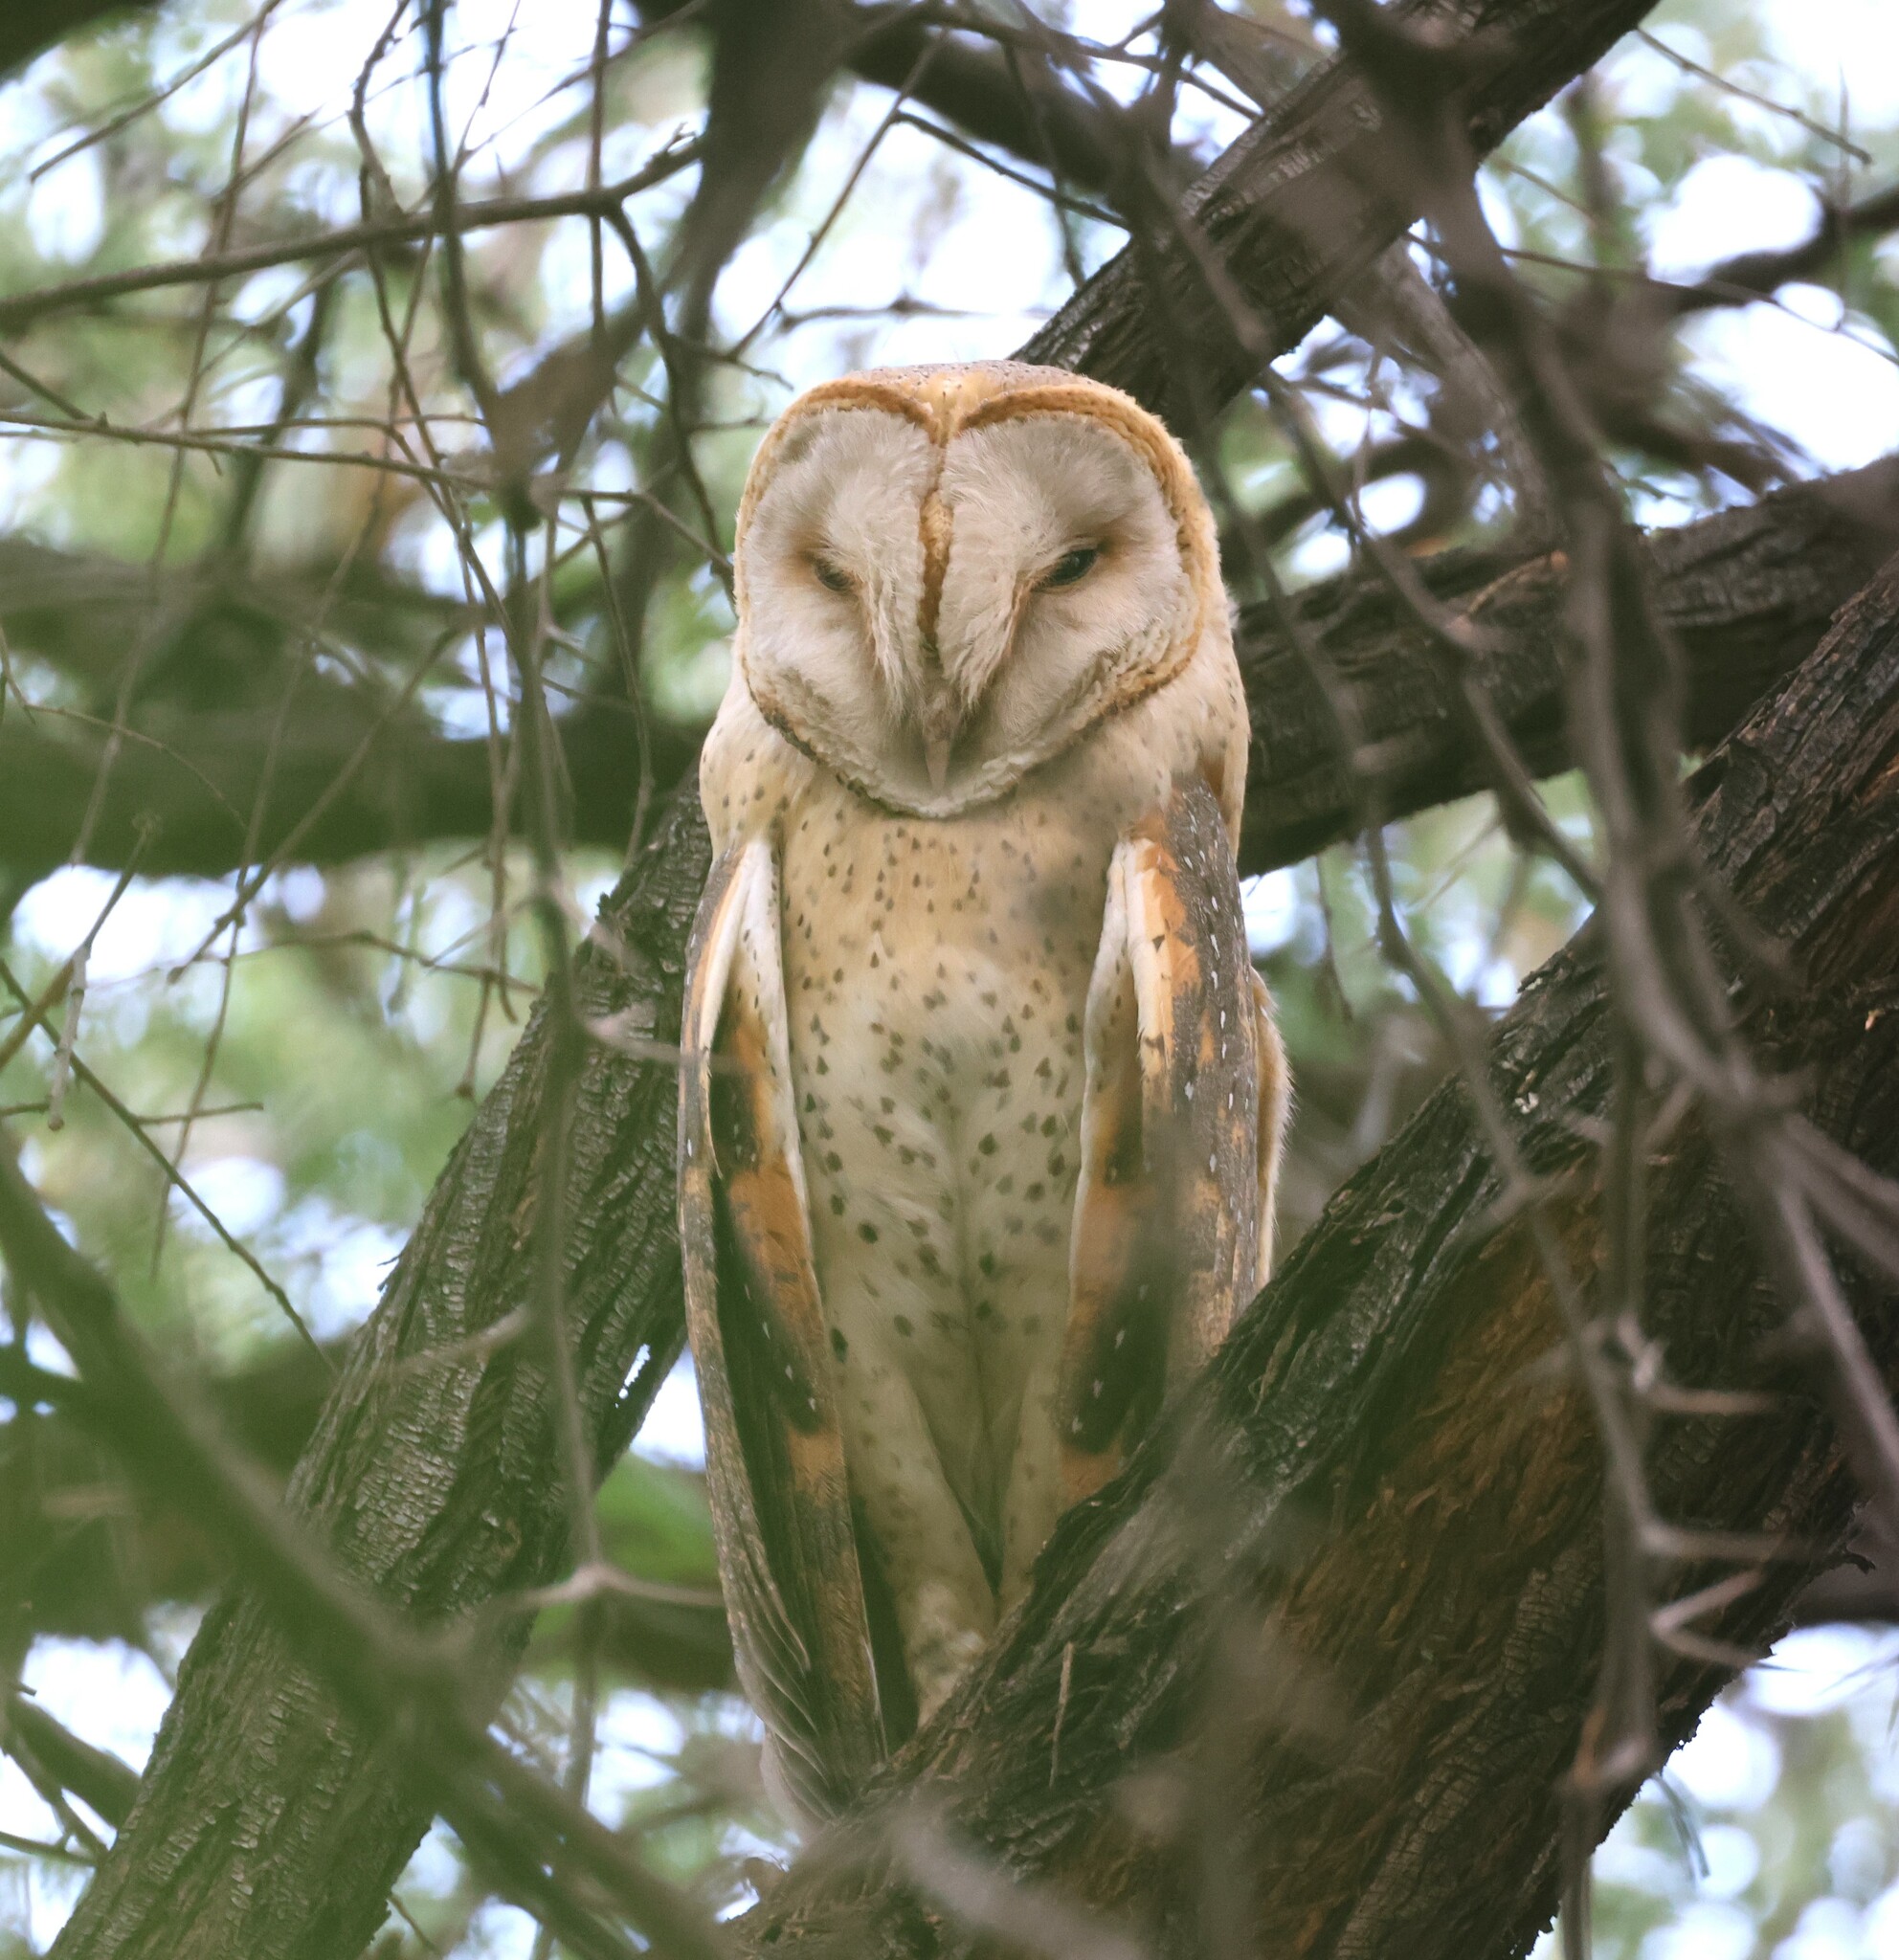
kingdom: Animalia
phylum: Chordata
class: Aves
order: Strigiformes
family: Tytonidae
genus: Tyto
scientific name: Tyto alba
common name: Barn owl
